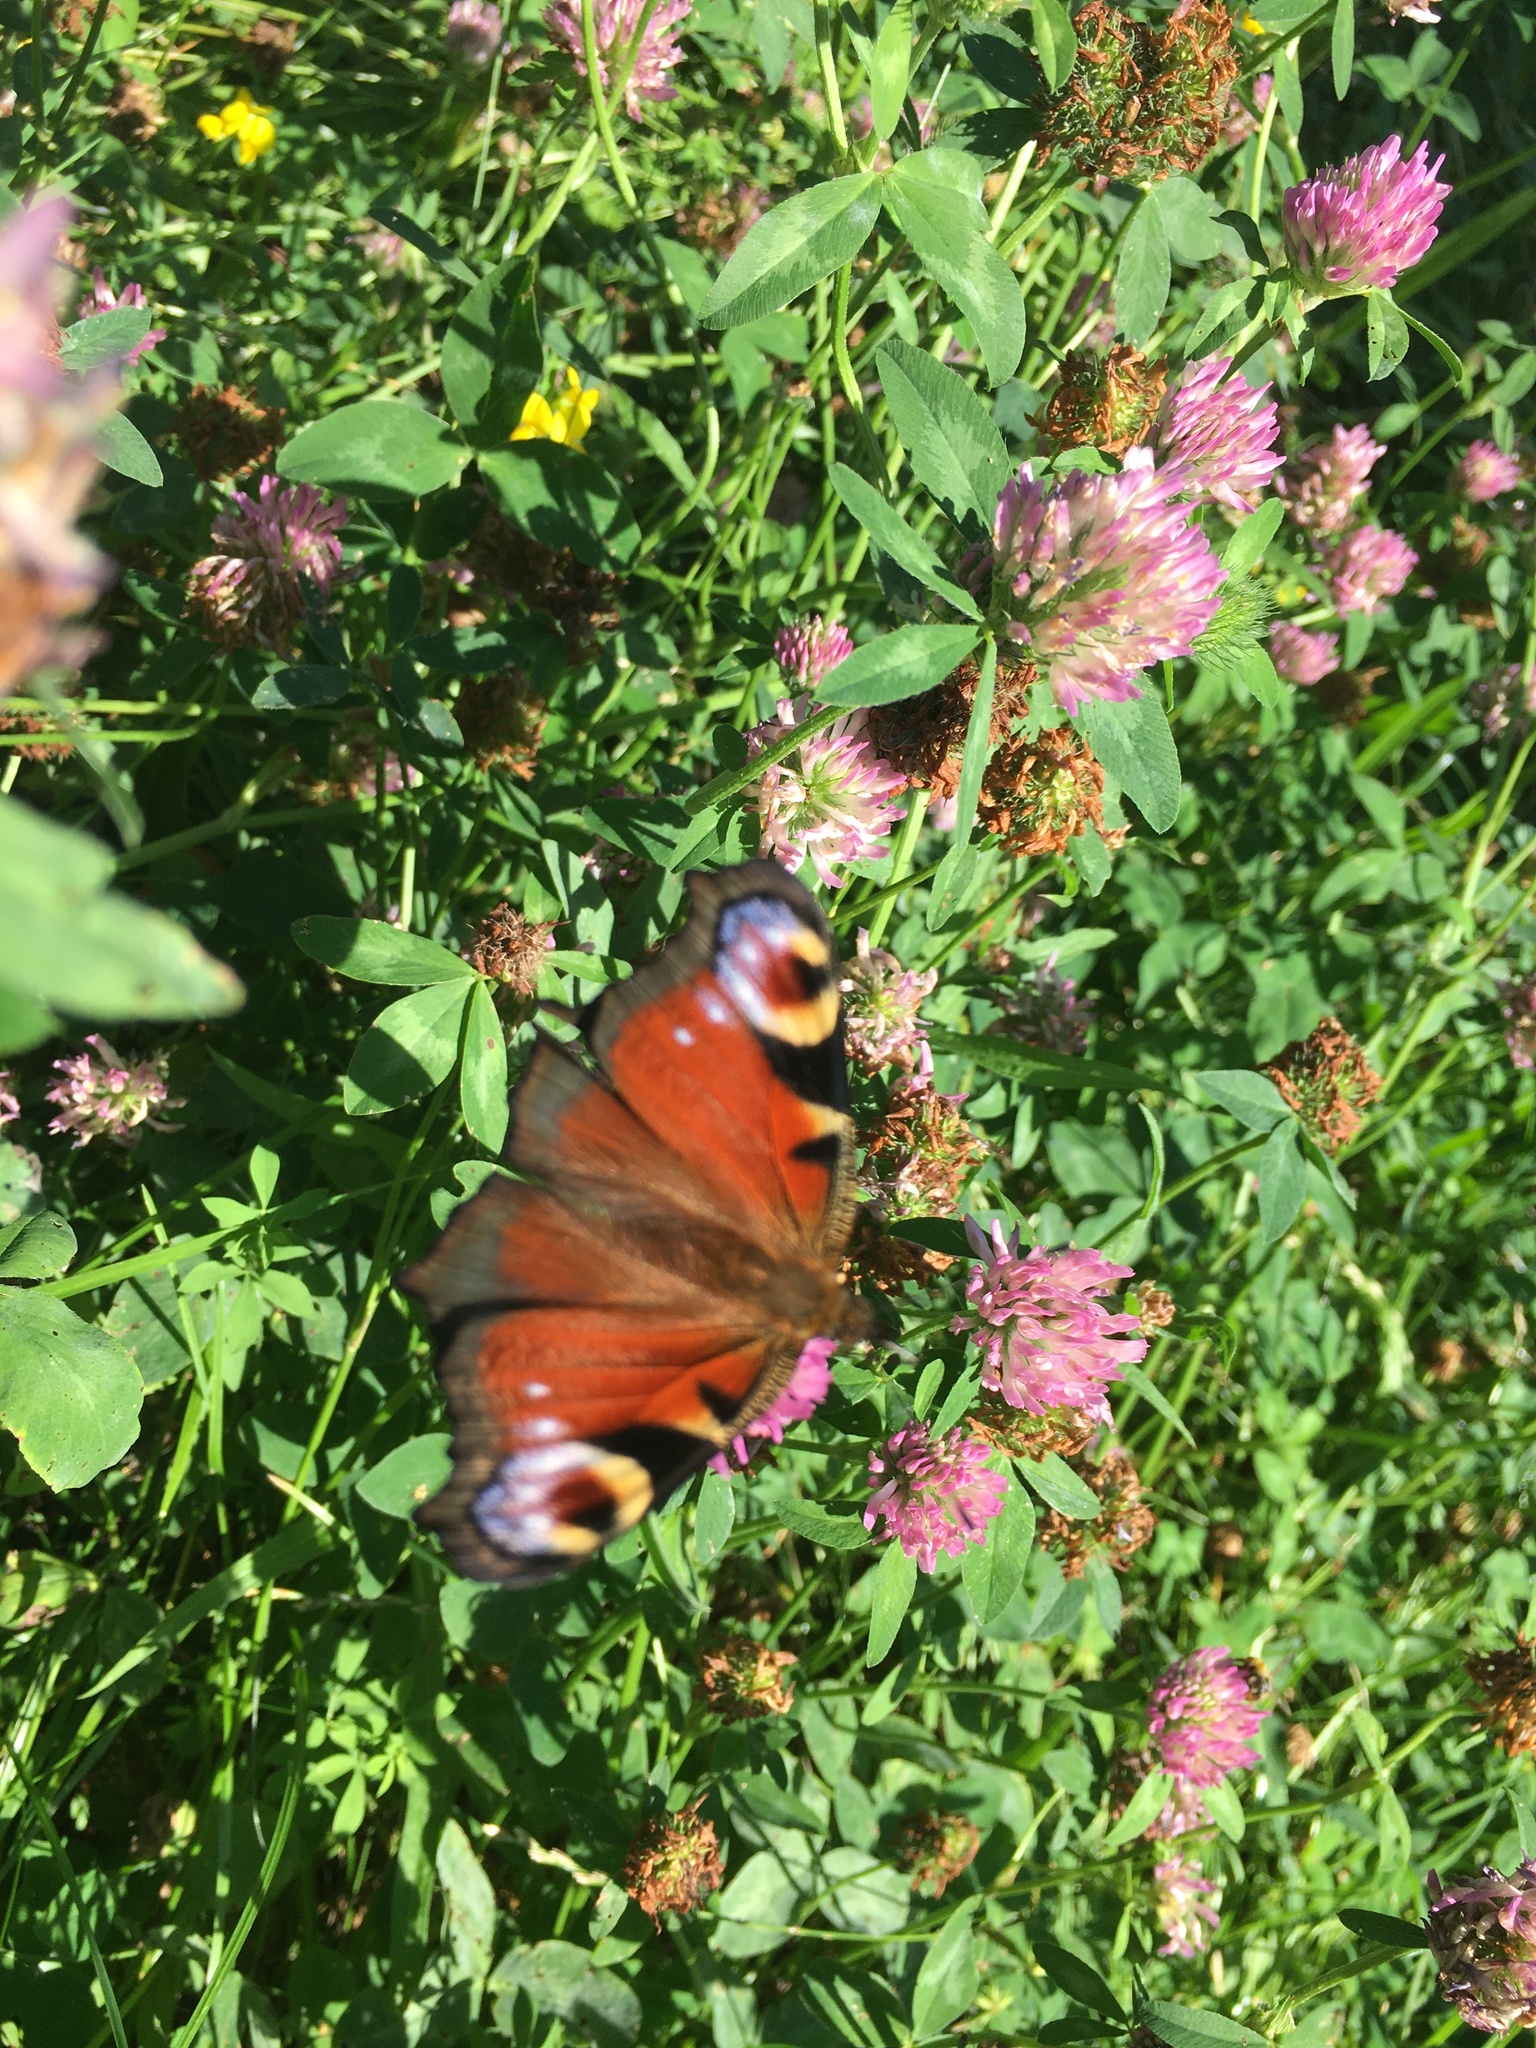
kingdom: Animalia
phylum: Arthropoda
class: Insecta
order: Lepidoptera
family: Nymphalidae
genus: Aglais
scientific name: Aglais io
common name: Peacock
